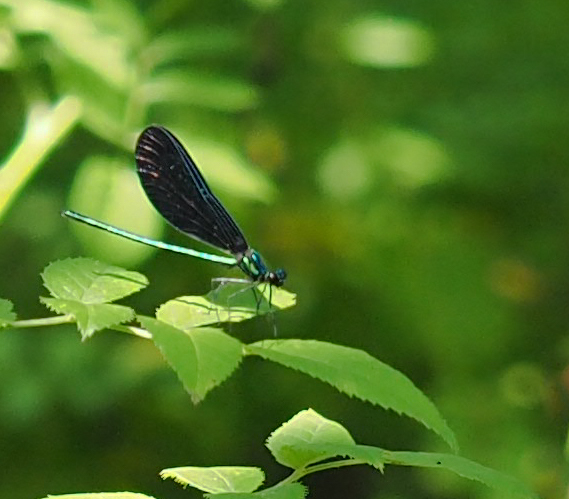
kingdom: Animalia
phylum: Arthropoda
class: Insecta
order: Odonata
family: Calopterygidae
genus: Calopteryx
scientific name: Calopteryx maculata
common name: Ebony jewelwing
